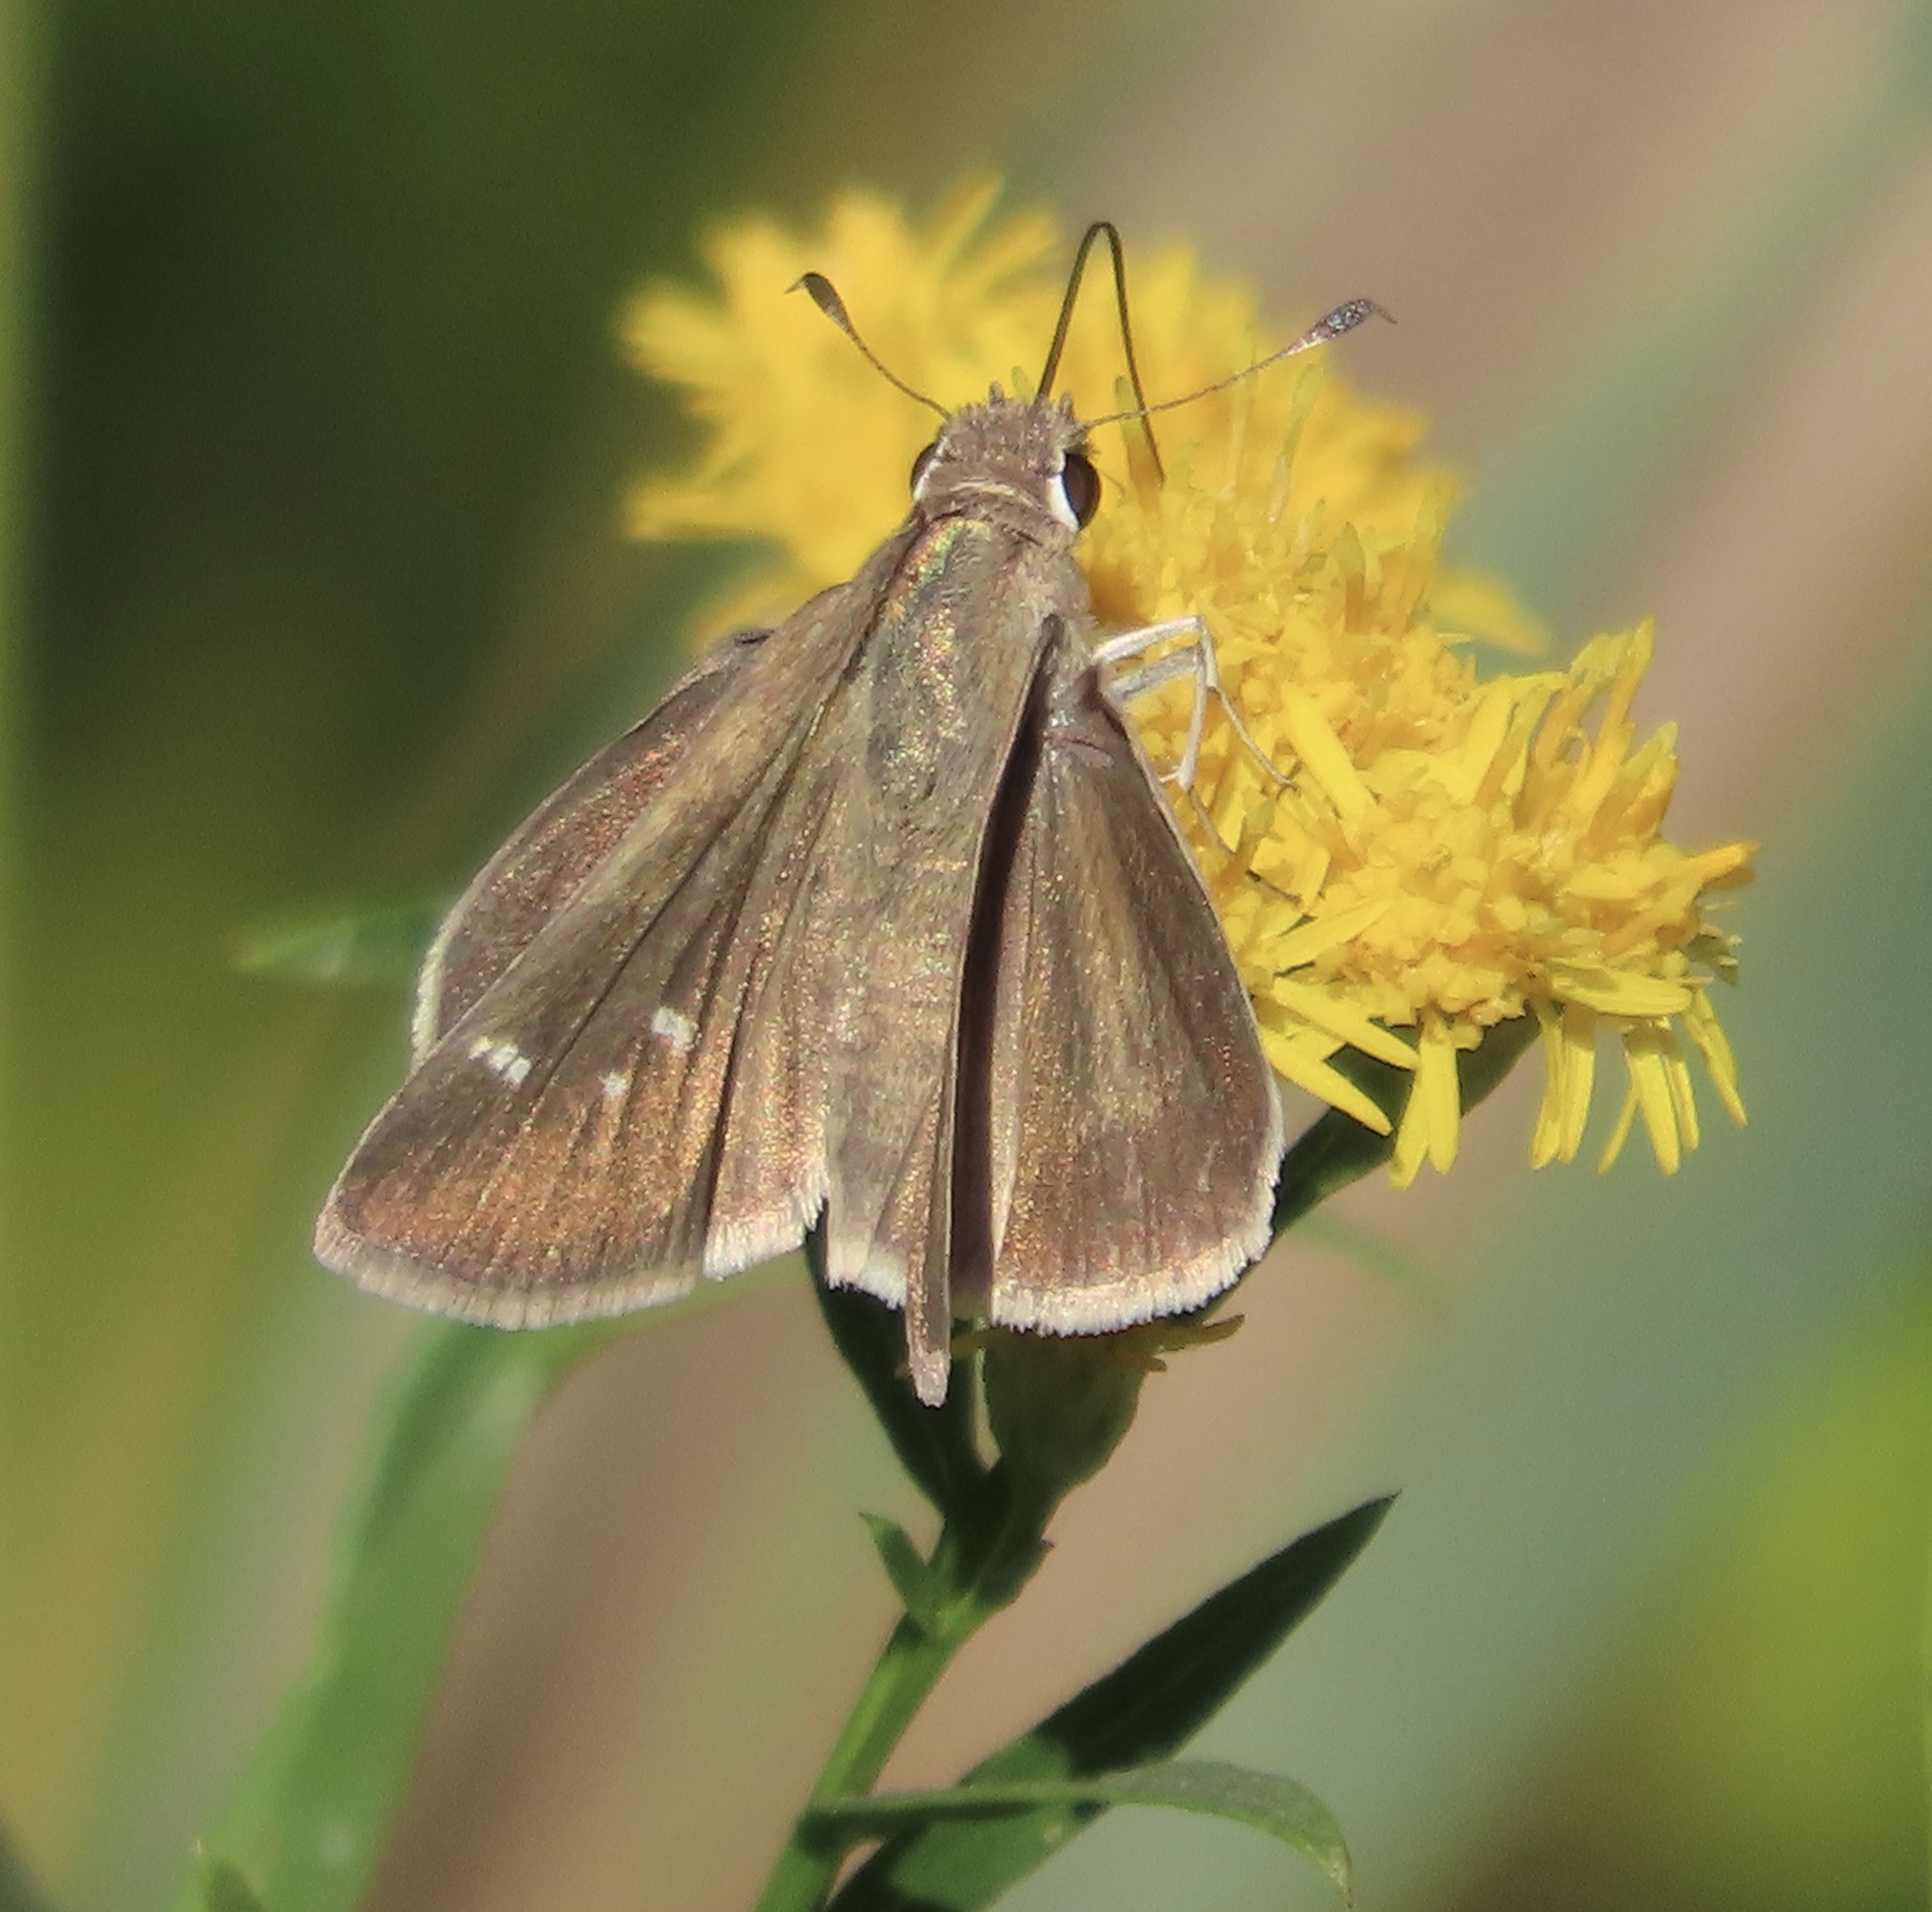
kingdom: Animalia
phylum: Arthropoda
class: Insecta
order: Lepidoptera
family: Hesperiidae
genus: Lerodea
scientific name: Lerodea eufala
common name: Eufala skipper
